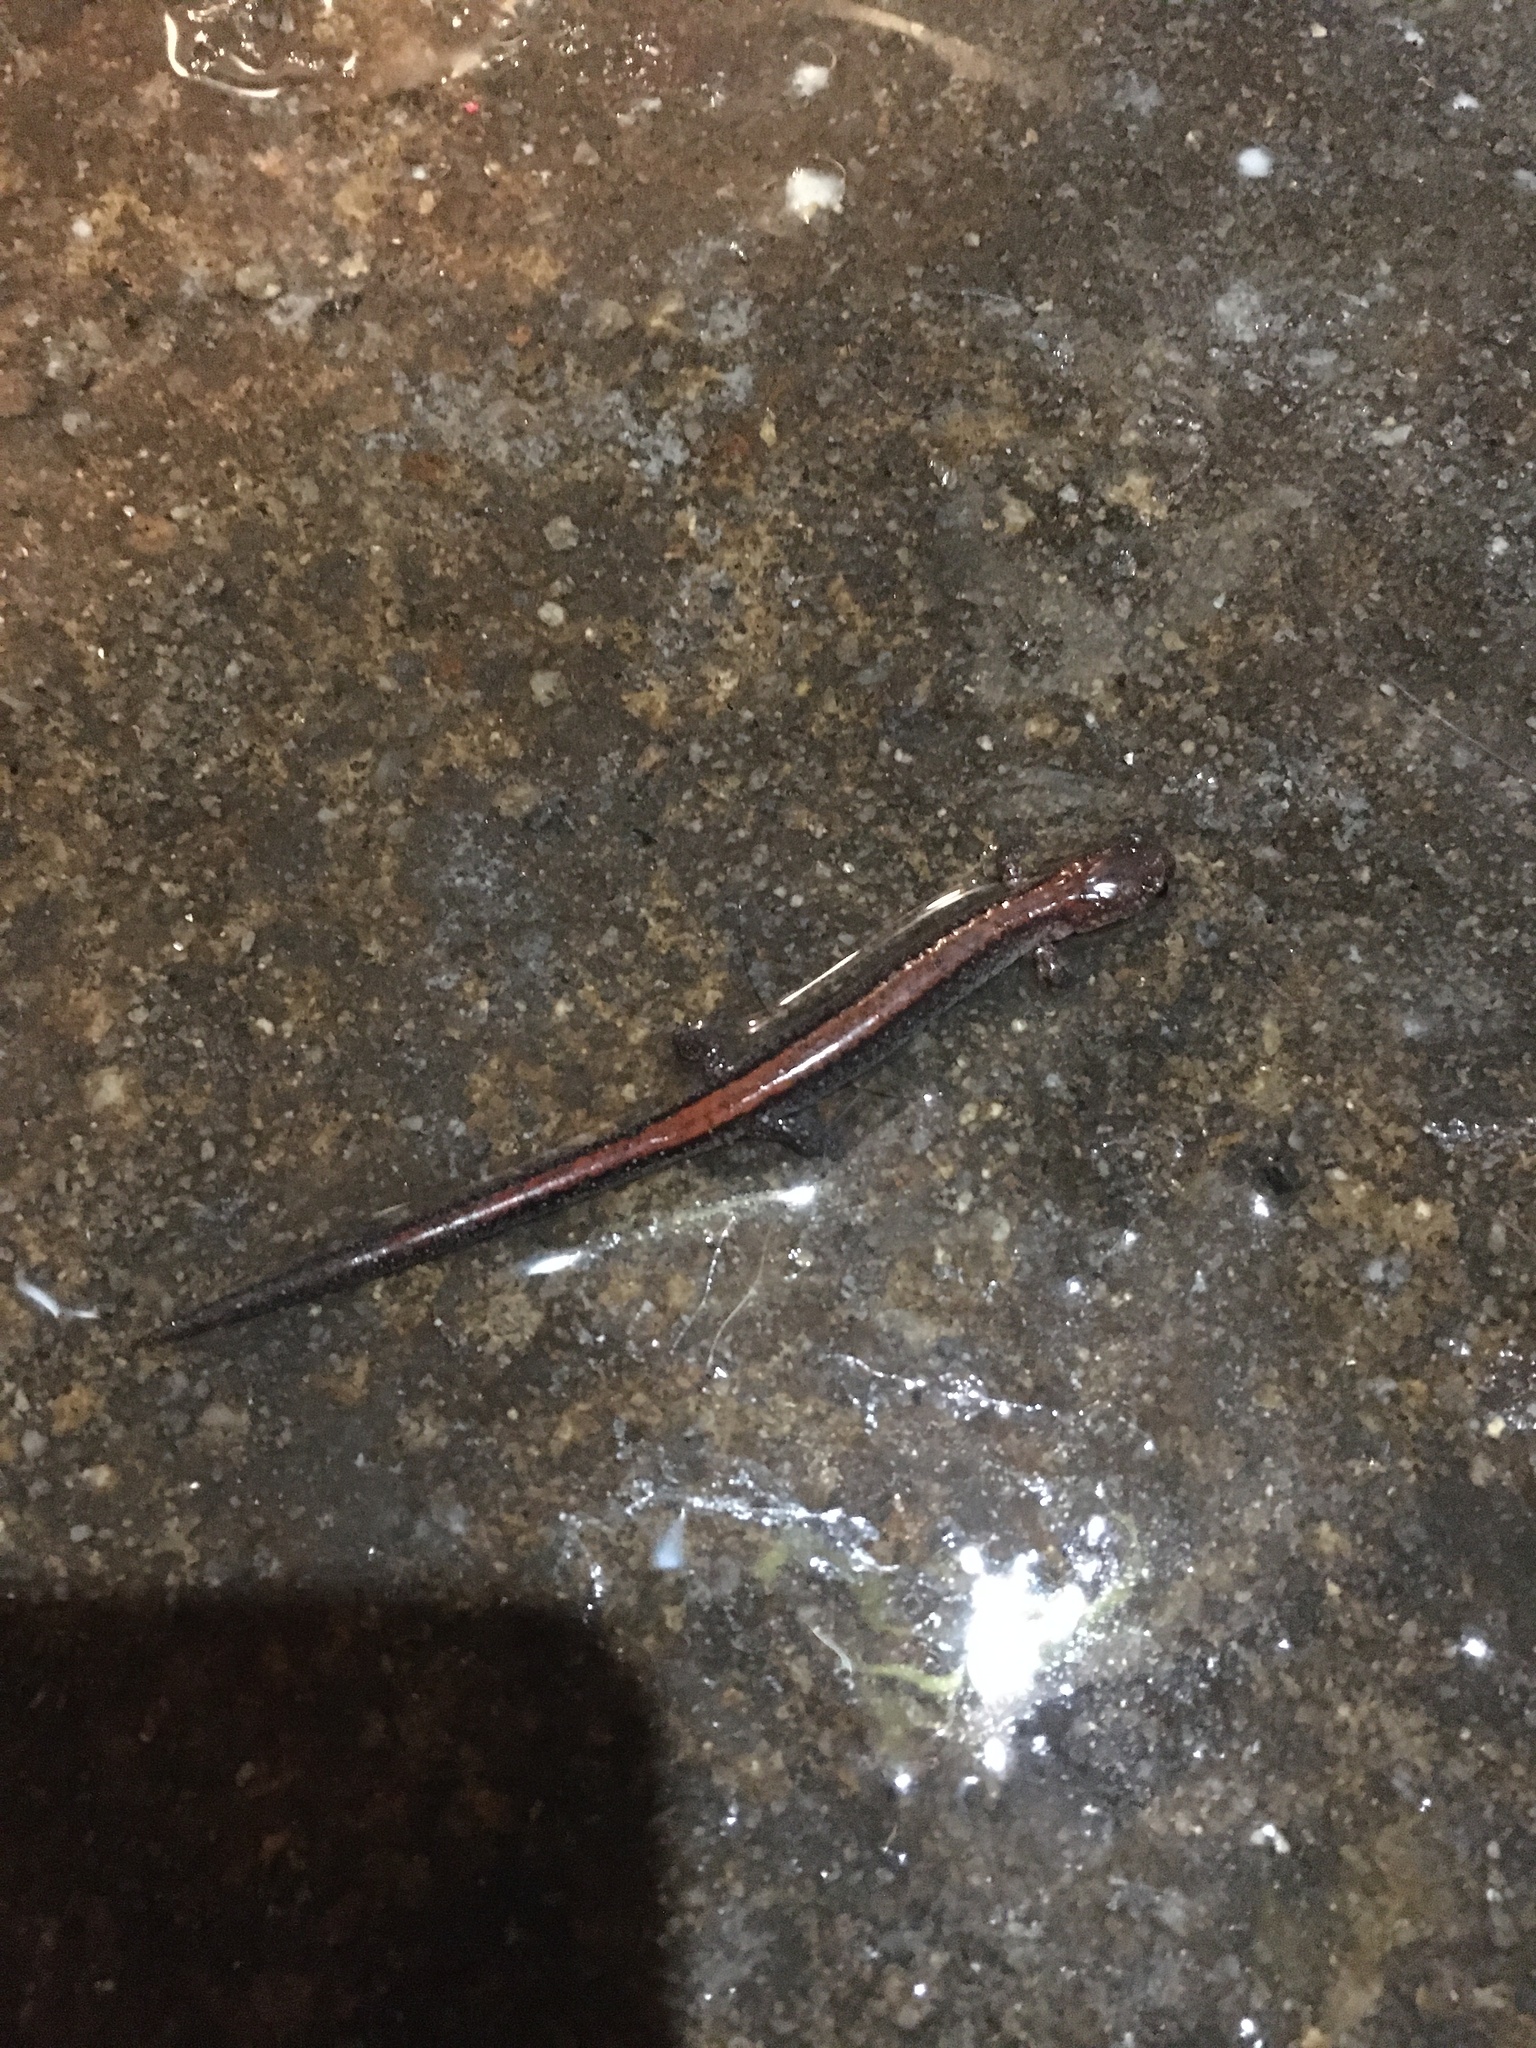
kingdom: Animalia
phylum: Chordata
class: Amphibia
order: Caudata
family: Plethodontidae
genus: Plethodon
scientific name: Plethodon cinereus
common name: Redback salamander
